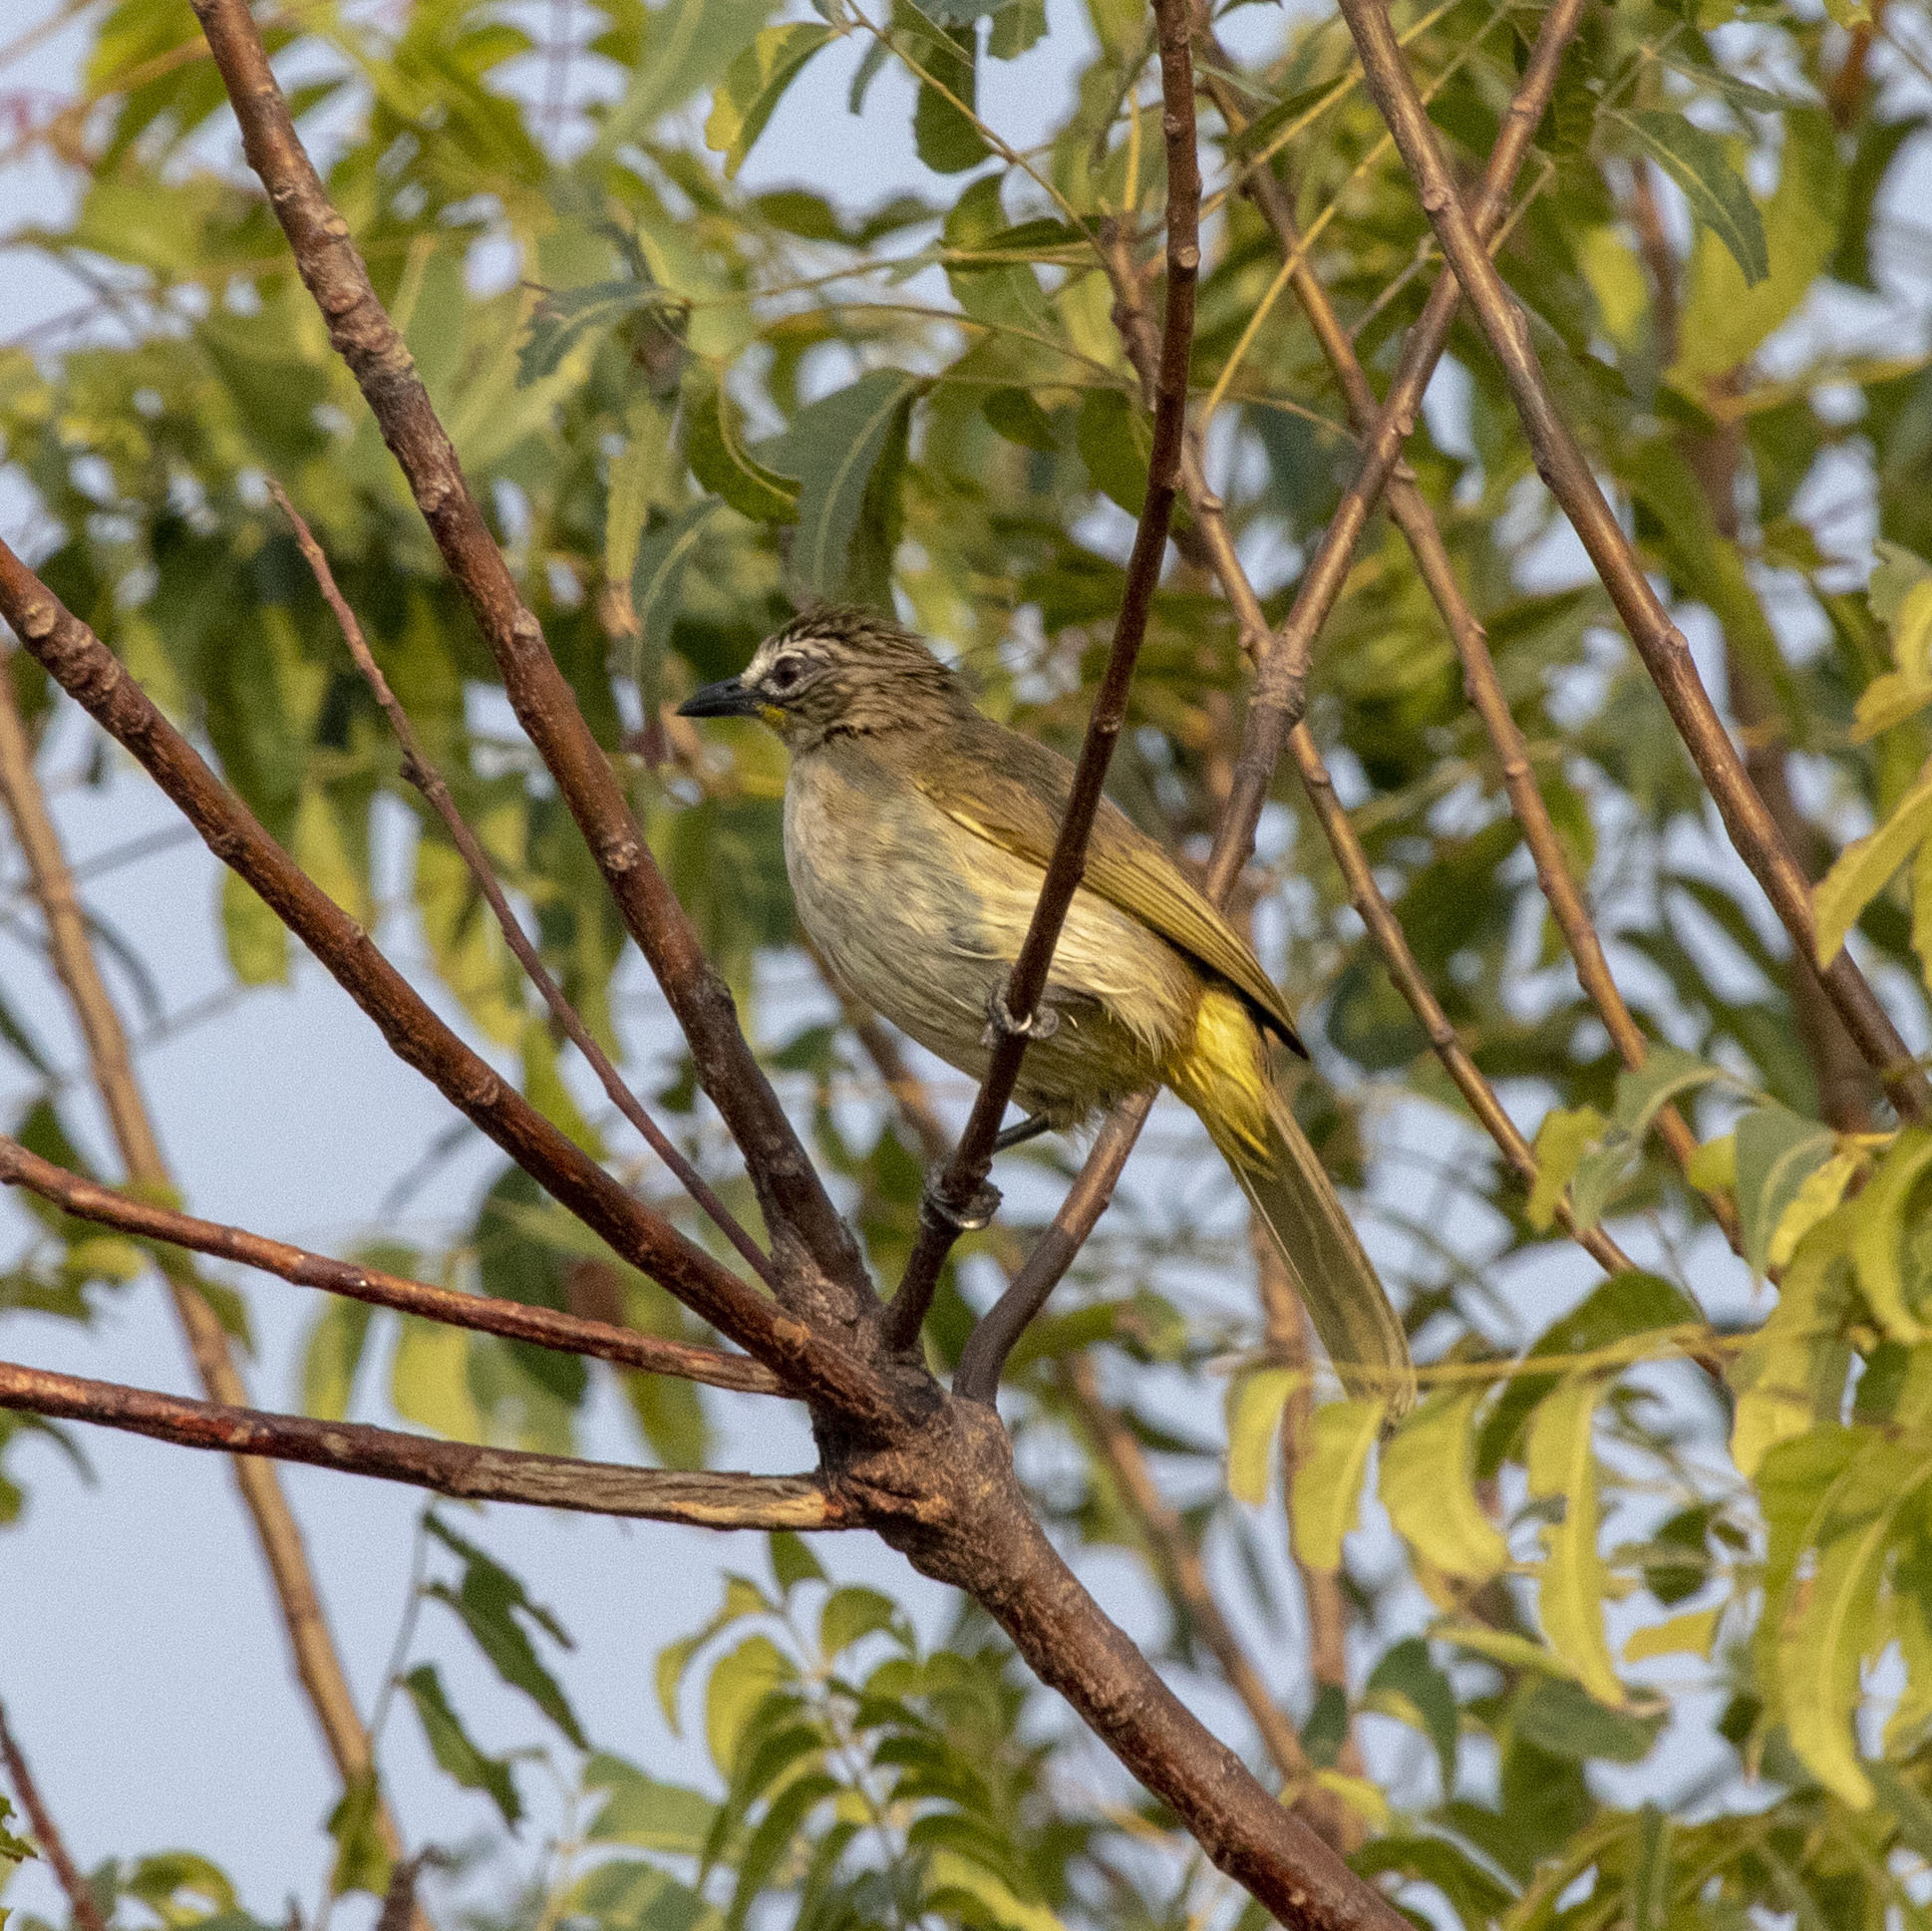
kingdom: Animalia
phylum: Chordata
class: Aves
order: Passeriformes
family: Pycnonotidae
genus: Pycnonotus
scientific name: Pycnonotus luteolus
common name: White-browed bulbul
